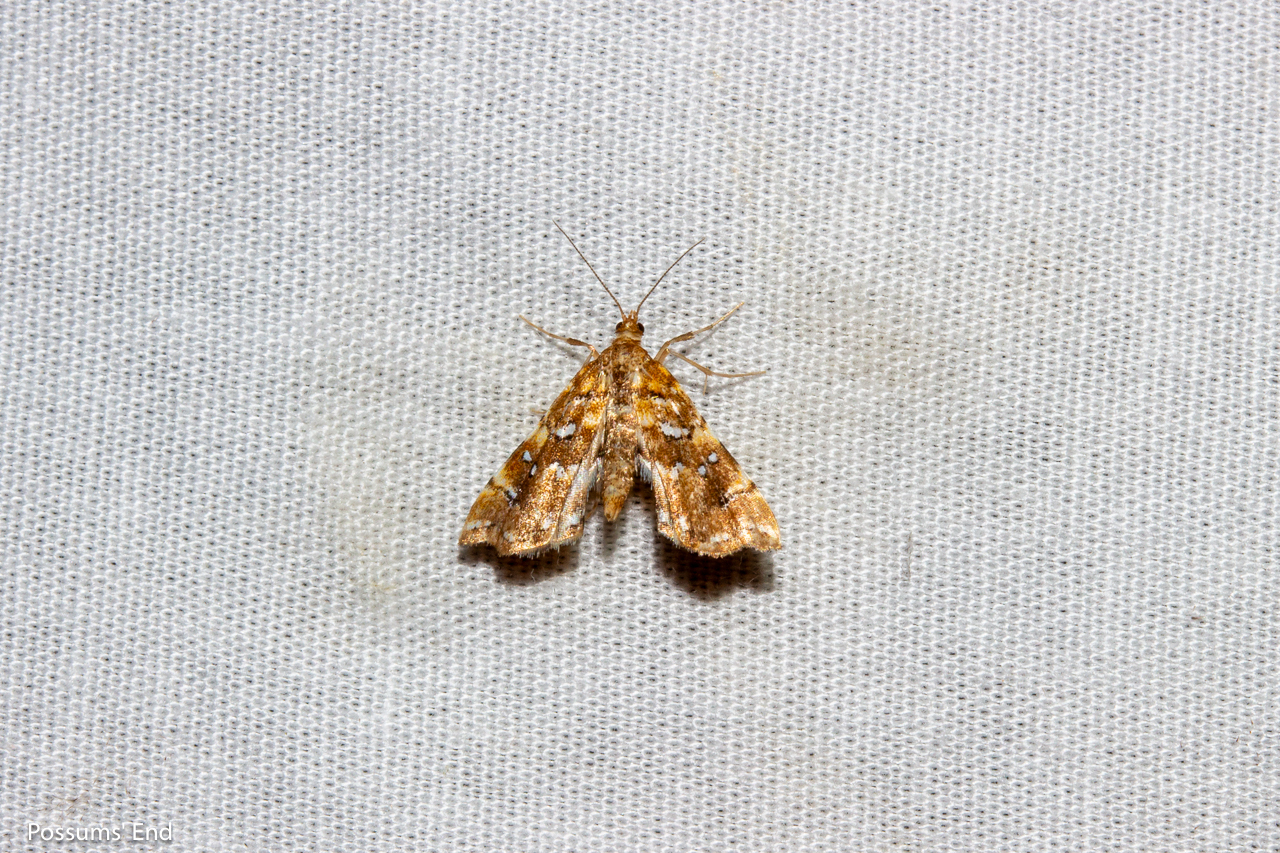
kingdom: Animalia
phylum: Arthropoda
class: Insecta
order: Lepidoptera
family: Pyralidae
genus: Musotima
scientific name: Musotima nitidalis
